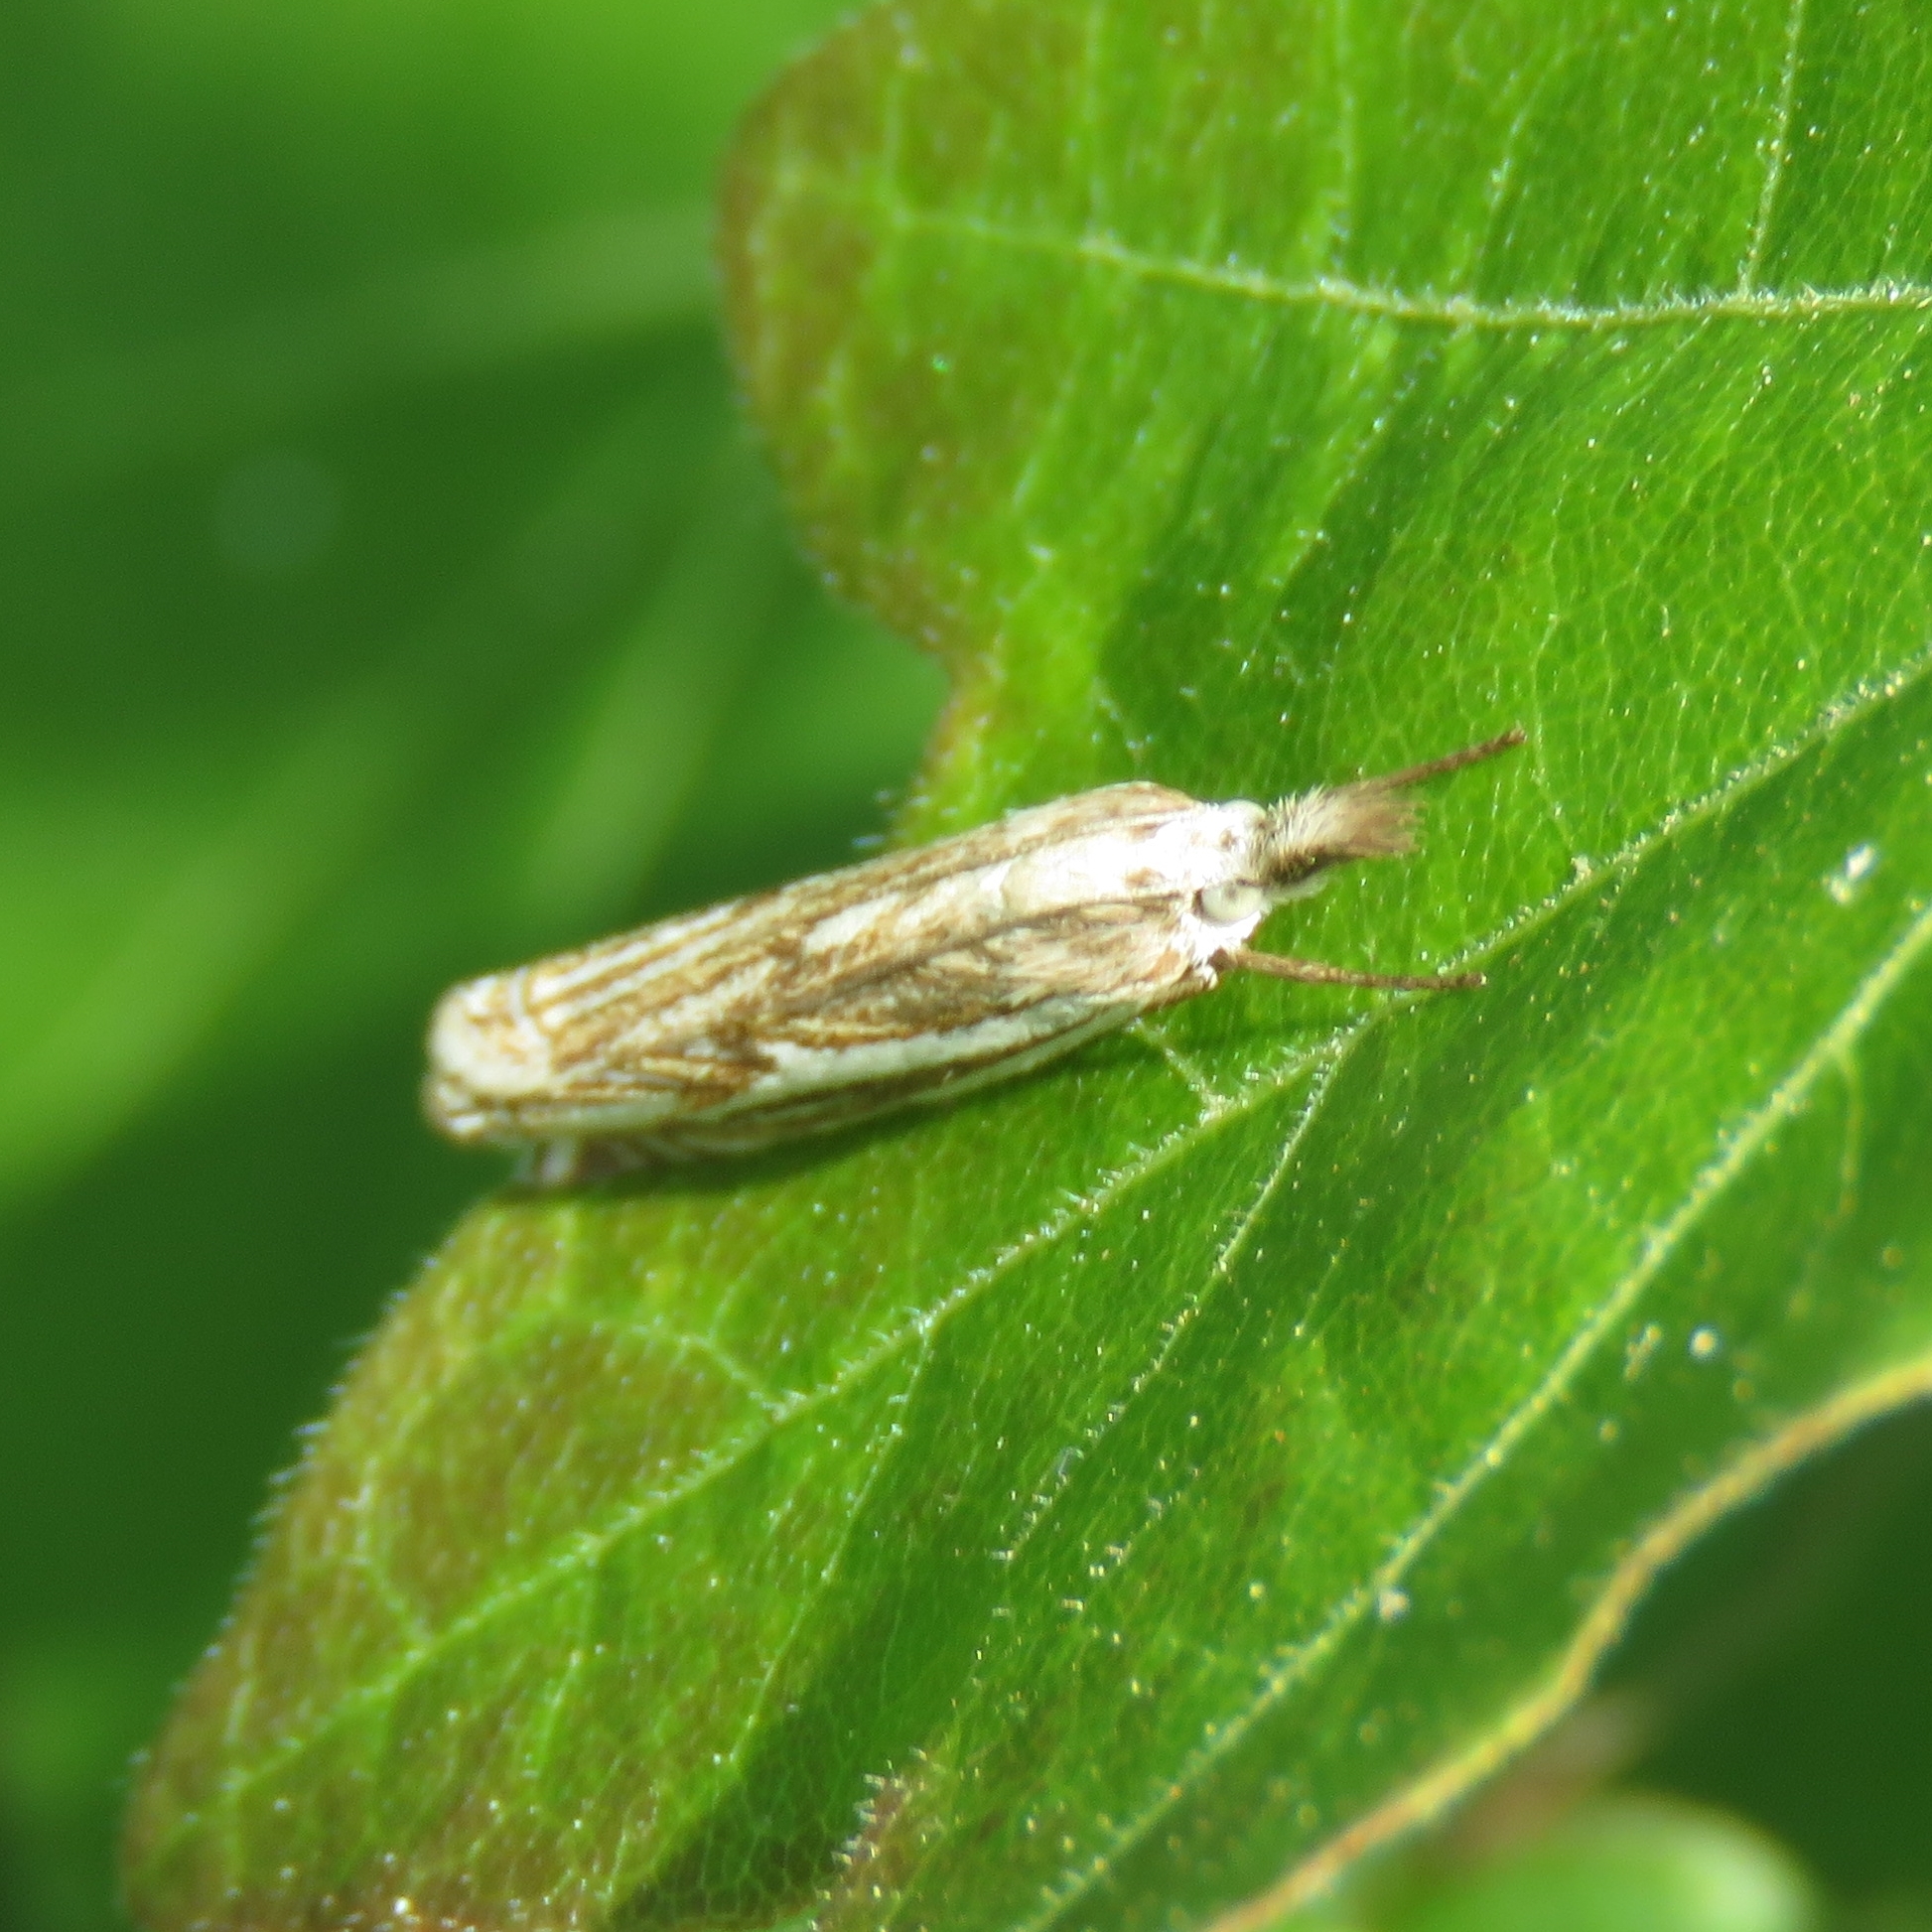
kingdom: Animalia
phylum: Arthropoda
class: Insecta
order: Lepidoptera
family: Crambidae
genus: Crambus
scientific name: Crambus nemorella
